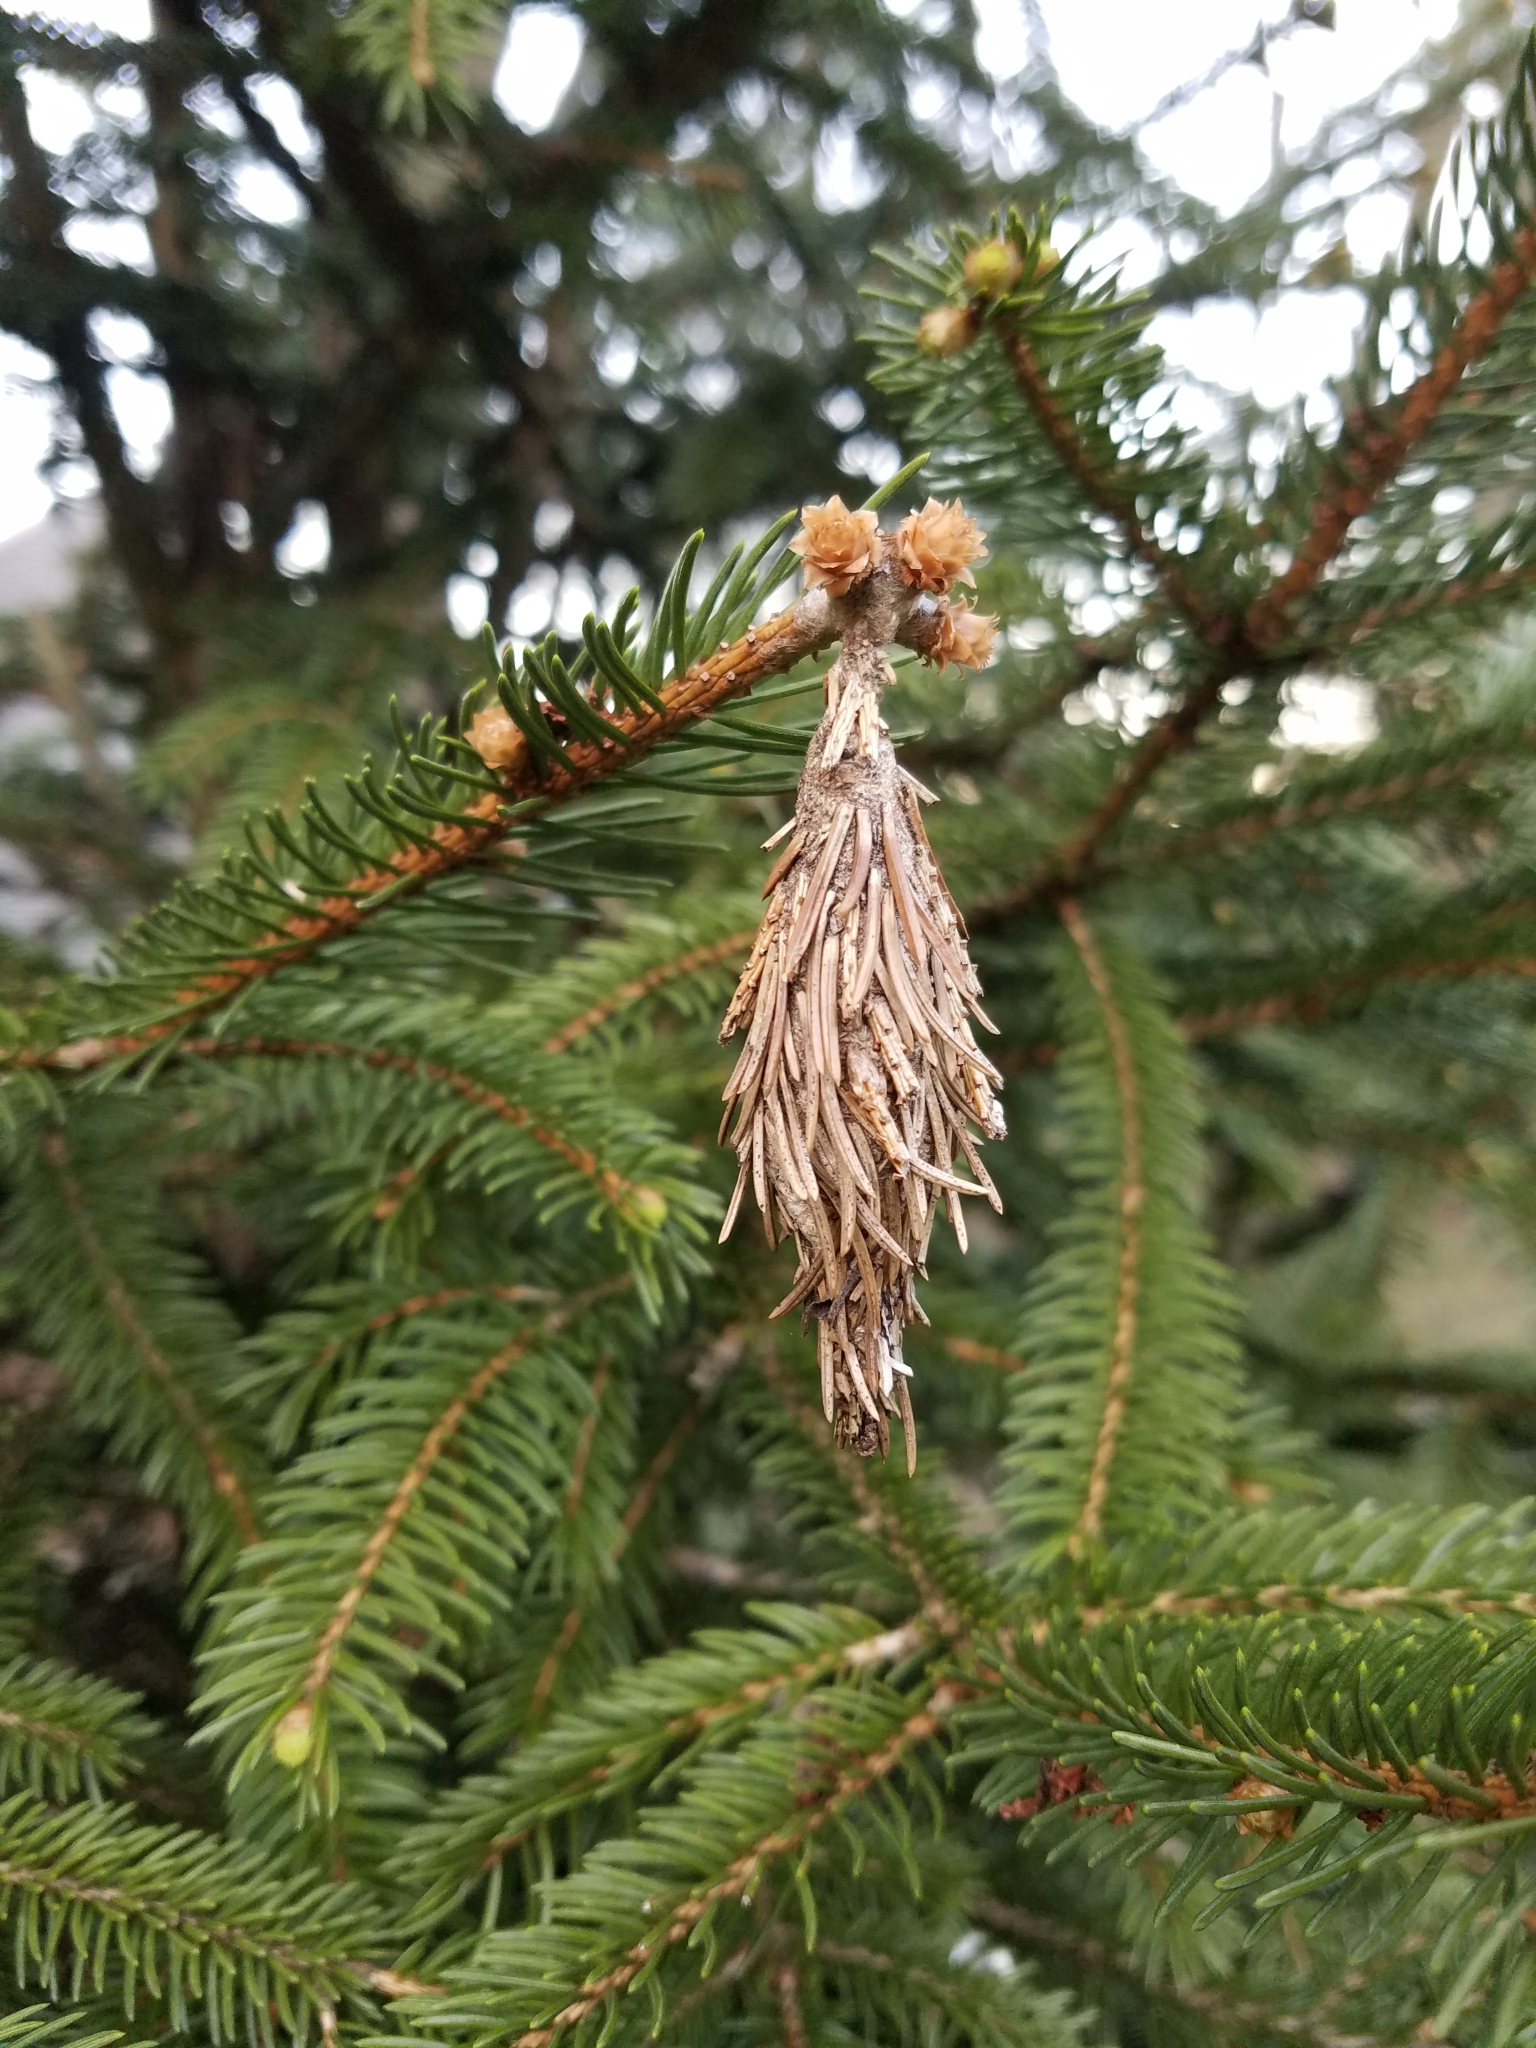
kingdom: Animalia
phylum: Arthropoda
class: Insecta
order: Lepidoptera
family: Psychidae
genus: Thyridopteryx
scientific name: Thyridopteryx ephemeraeformis
